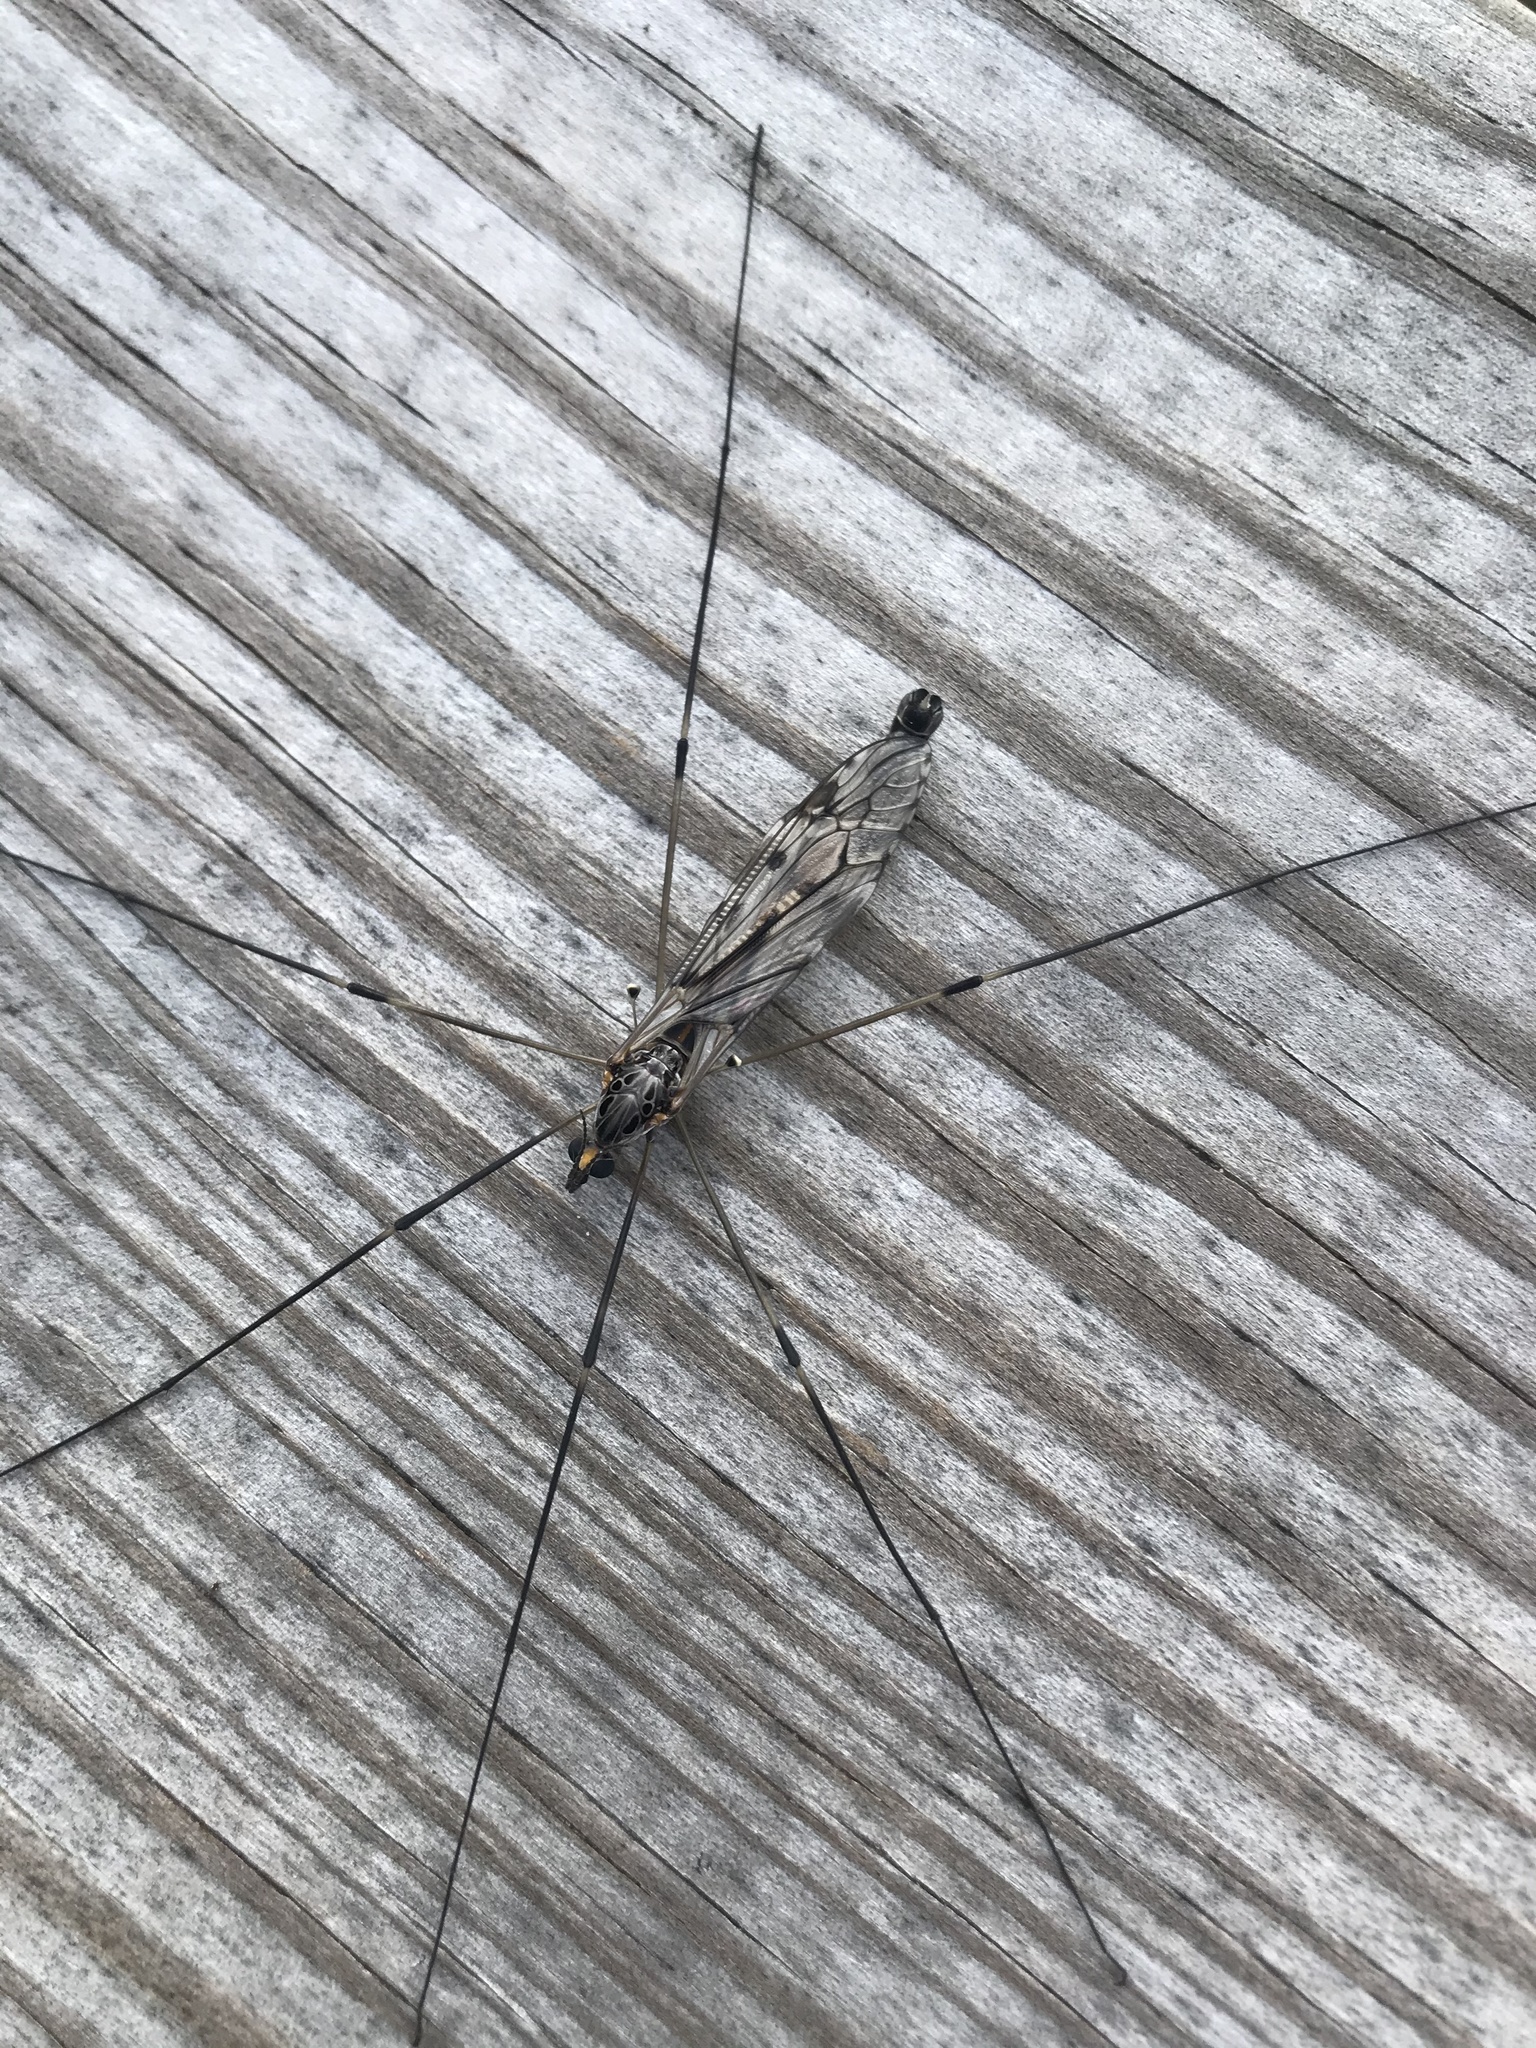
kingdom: Animalia
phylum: Arthropoda
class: Insecta
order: Diptera
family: Tipulidae
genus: Tipula
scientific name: Tipula abdominalis
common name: Giant crane fly
